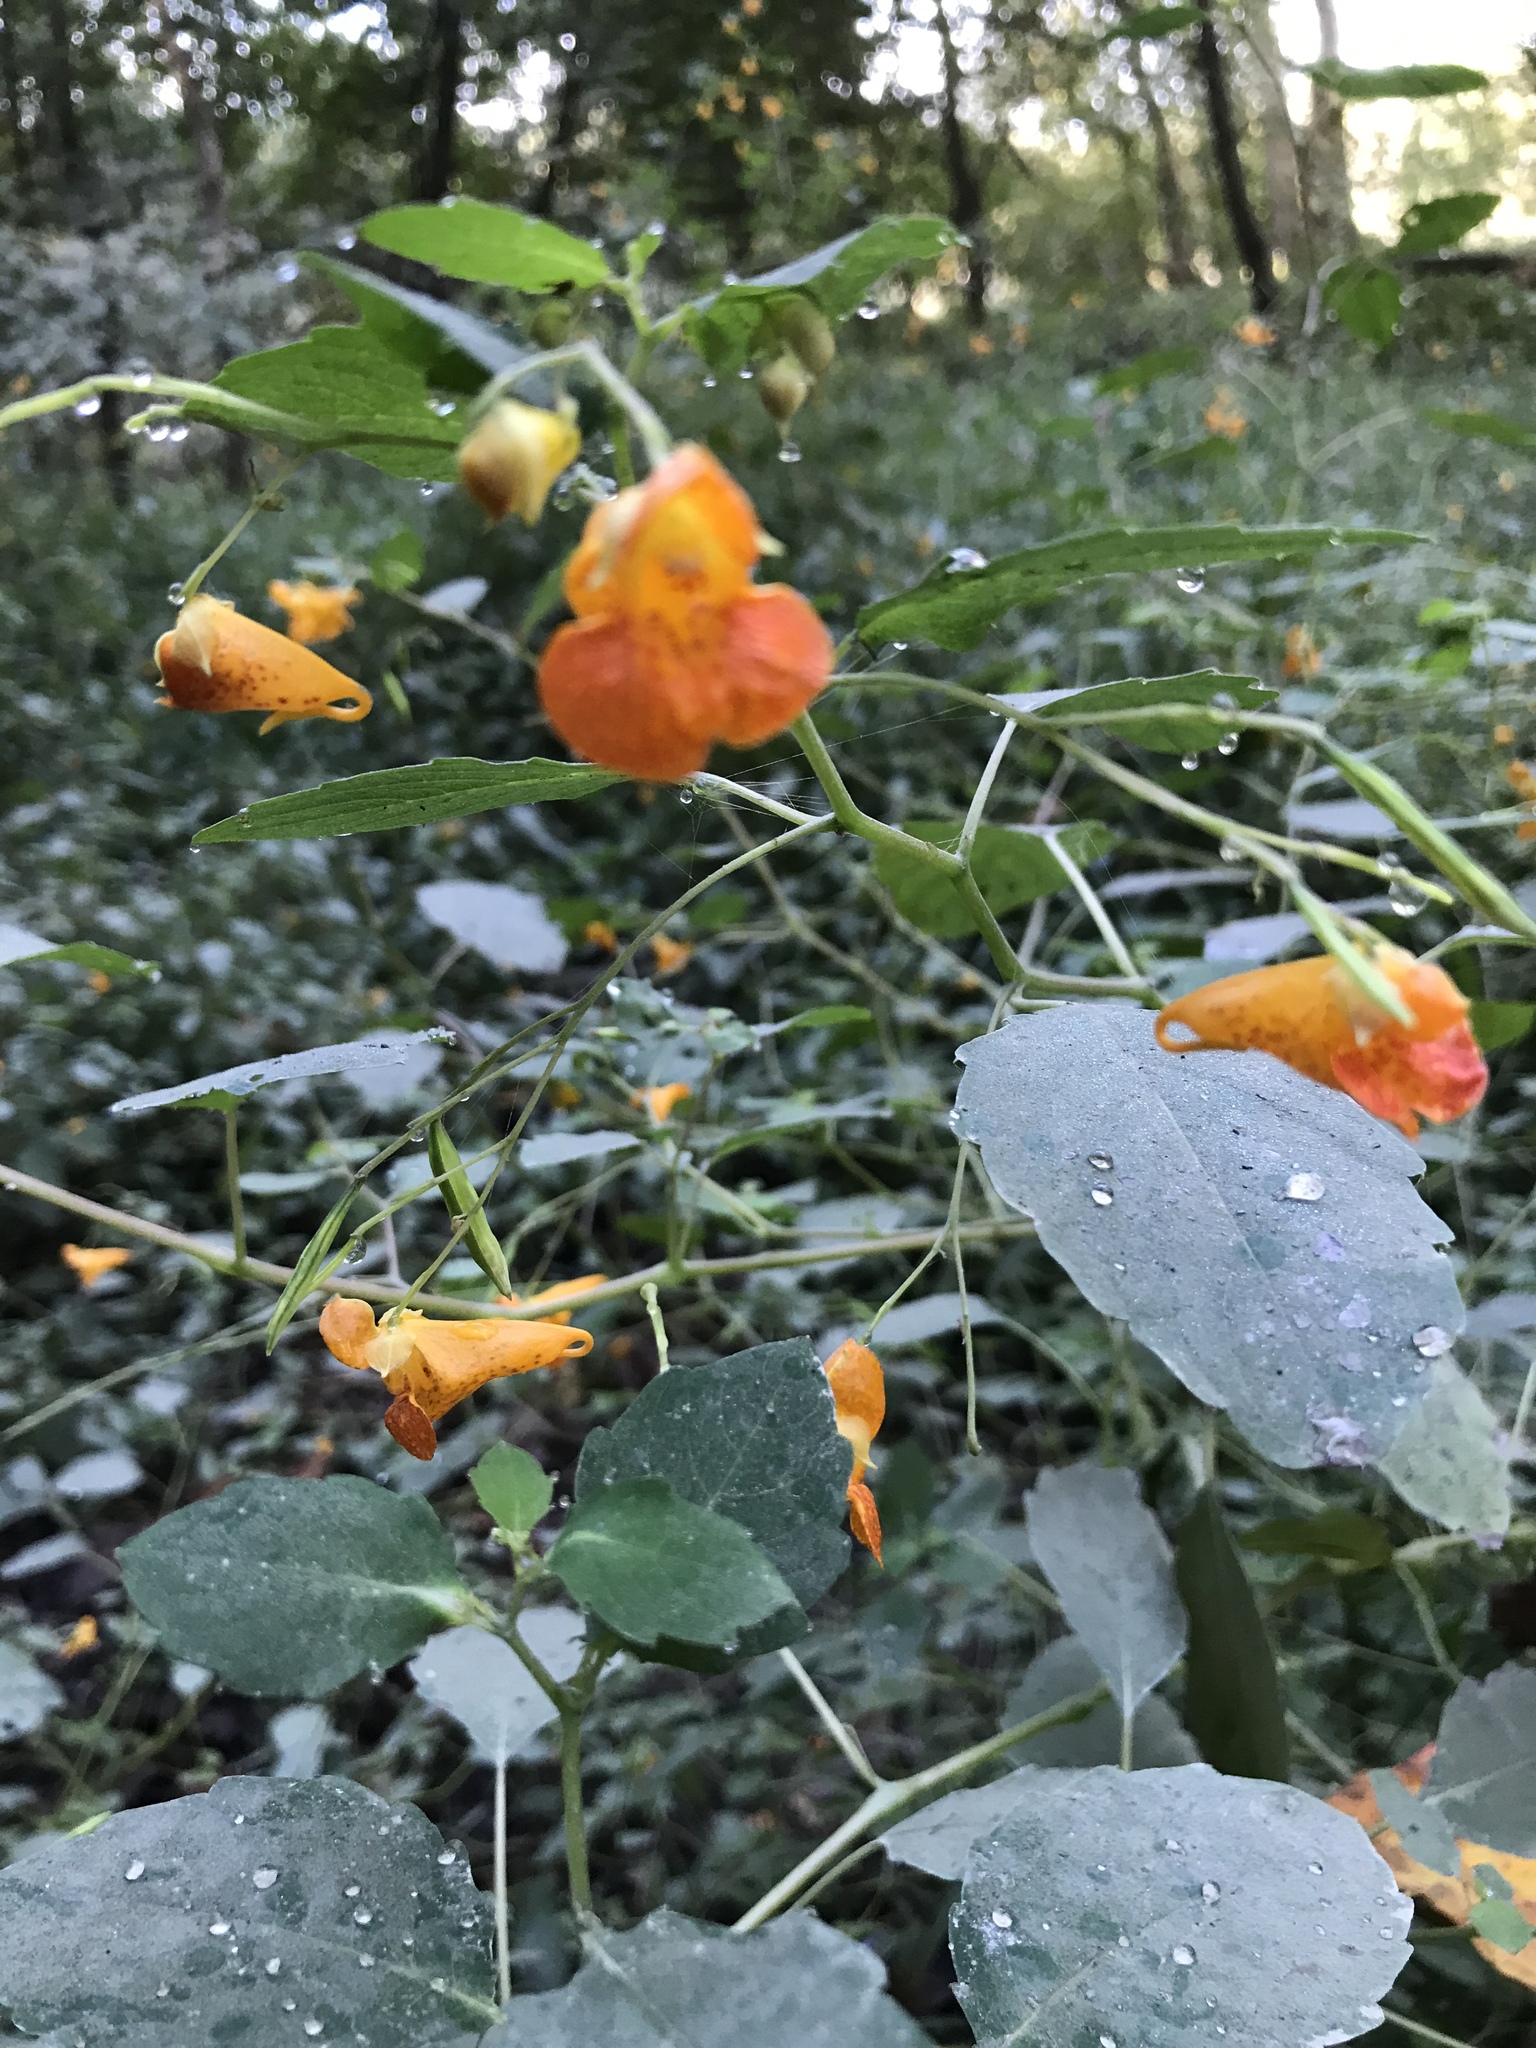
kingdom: Plantae
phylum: Tracheophyta
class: Magnoliopsida
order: Ericales
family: Balsaminaceae
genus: Impatiens
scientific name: Impatiens capensis
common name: Orange balsam
